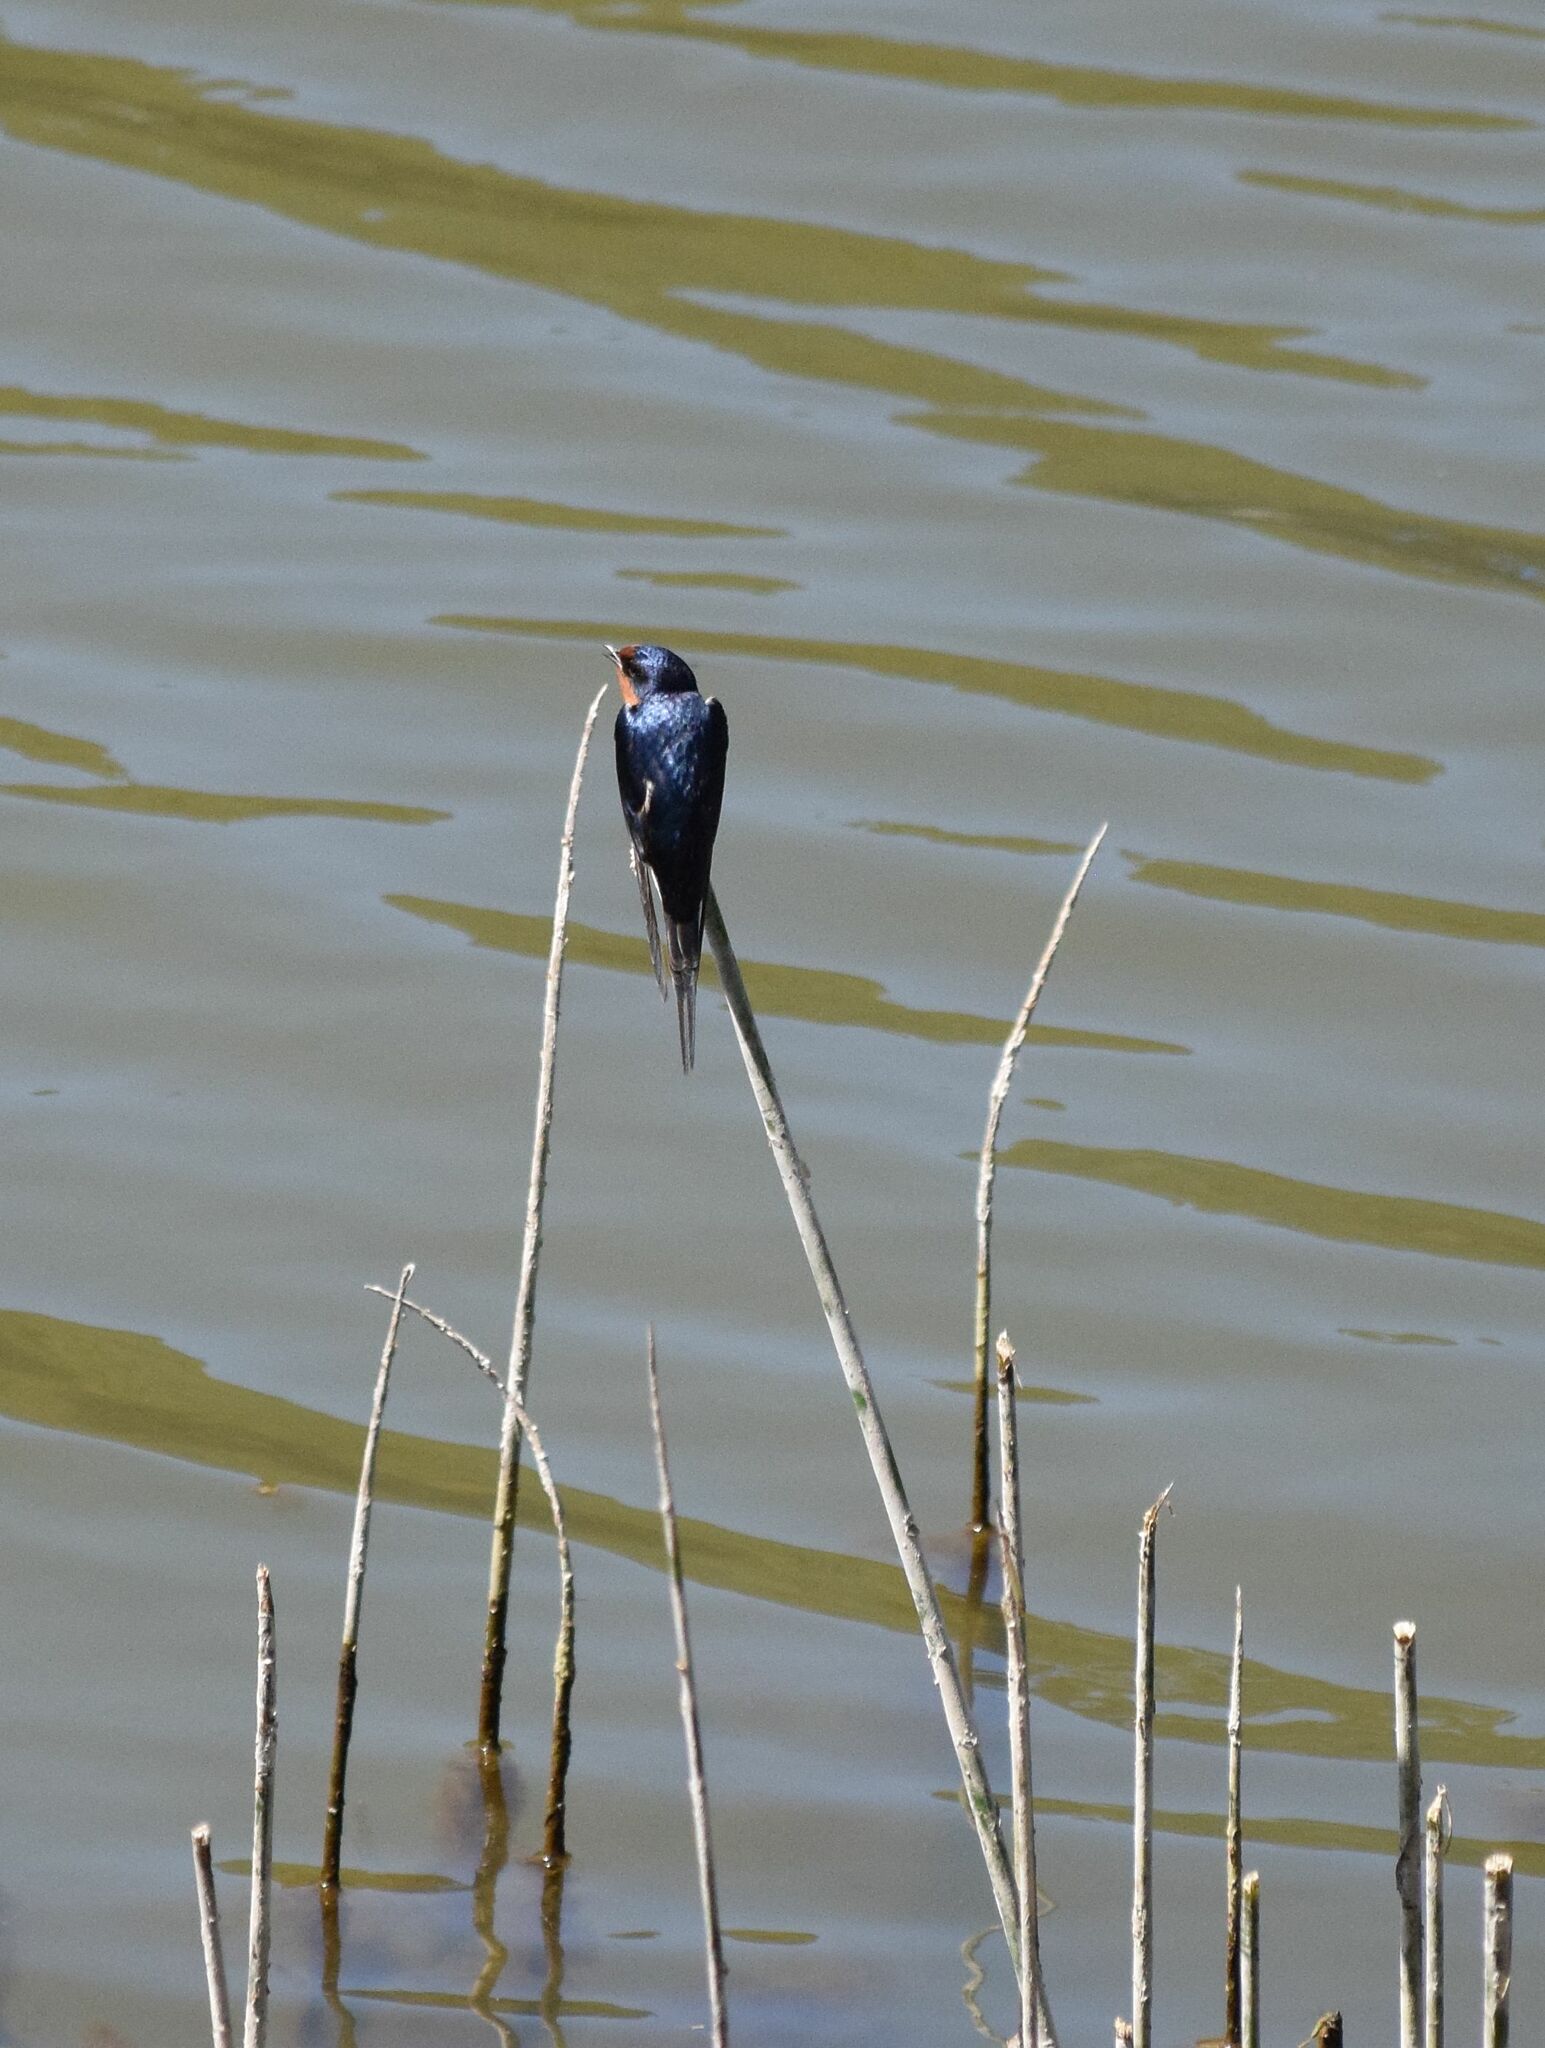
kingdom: Animalia
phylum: Chordata
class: Aves
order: Passeriformes
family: Hirundinidae
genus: Hirundo
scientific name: Hirundo rustica
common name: Barn swallow
